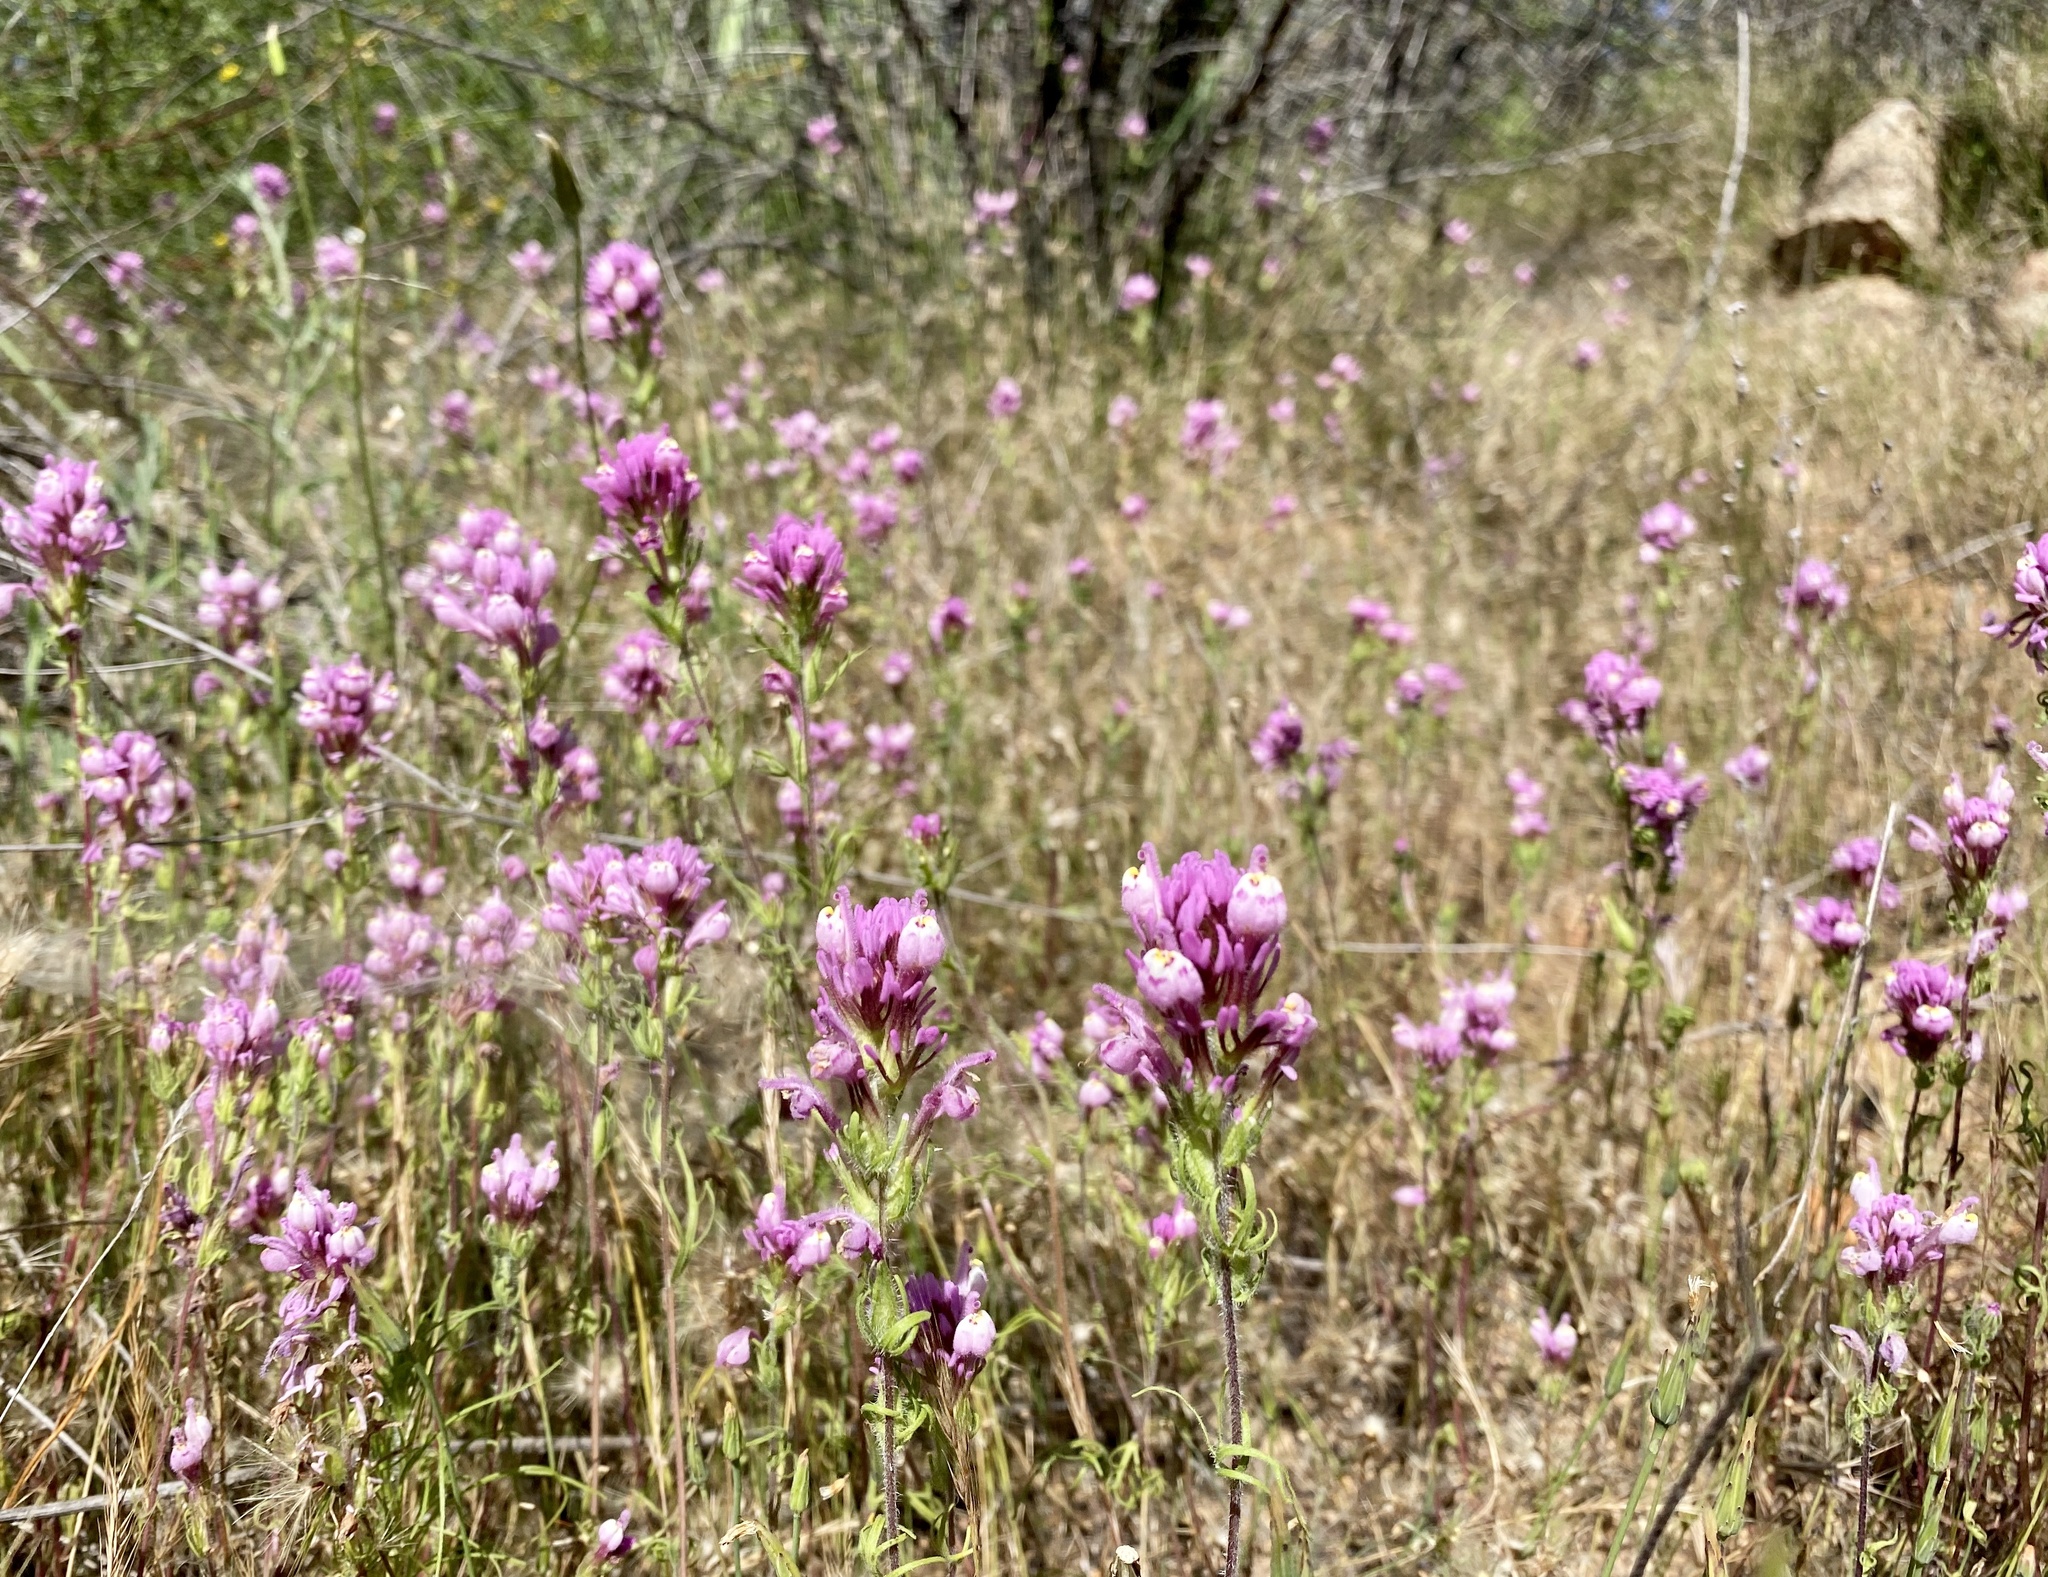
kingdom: Plantae
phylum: Tracheophyta
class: Magnoliopsida
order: Lamiales
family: Orobanchaceae
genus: Castilleja
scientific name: Castilleja exserta
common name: Purple owl-clover
